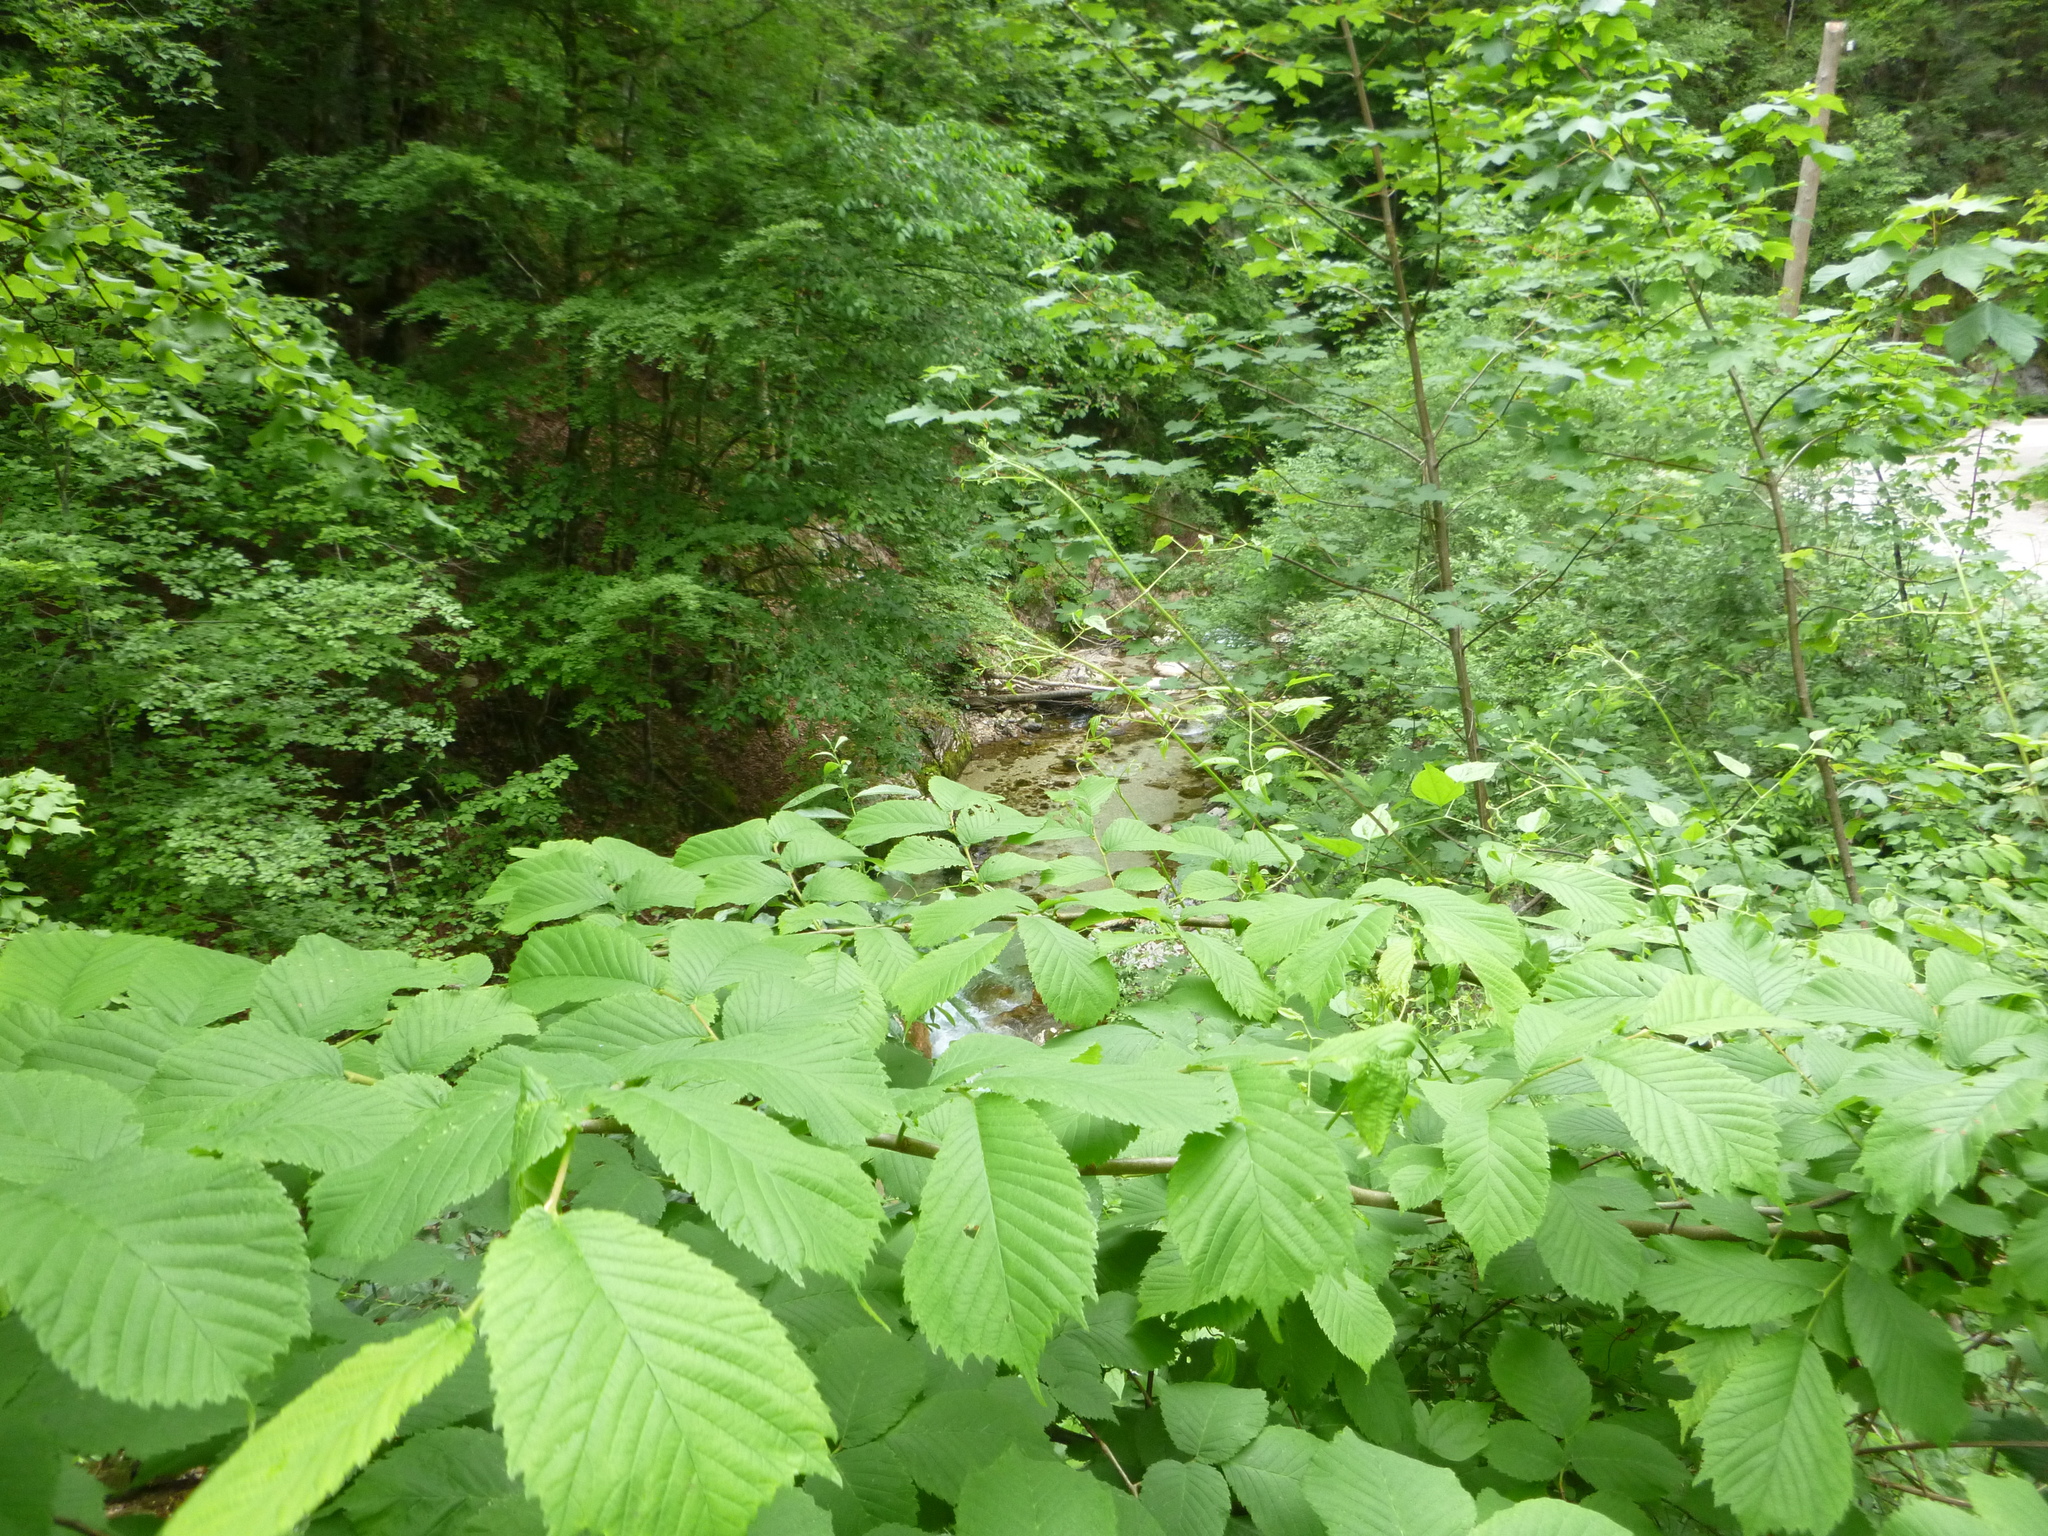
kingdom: Plantae
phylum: Tracheophyta
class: Magnoliopsida
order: Rosales
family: Ulmaceae
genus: Ulmus
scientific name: Ulmus glabra
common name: Wych elm
